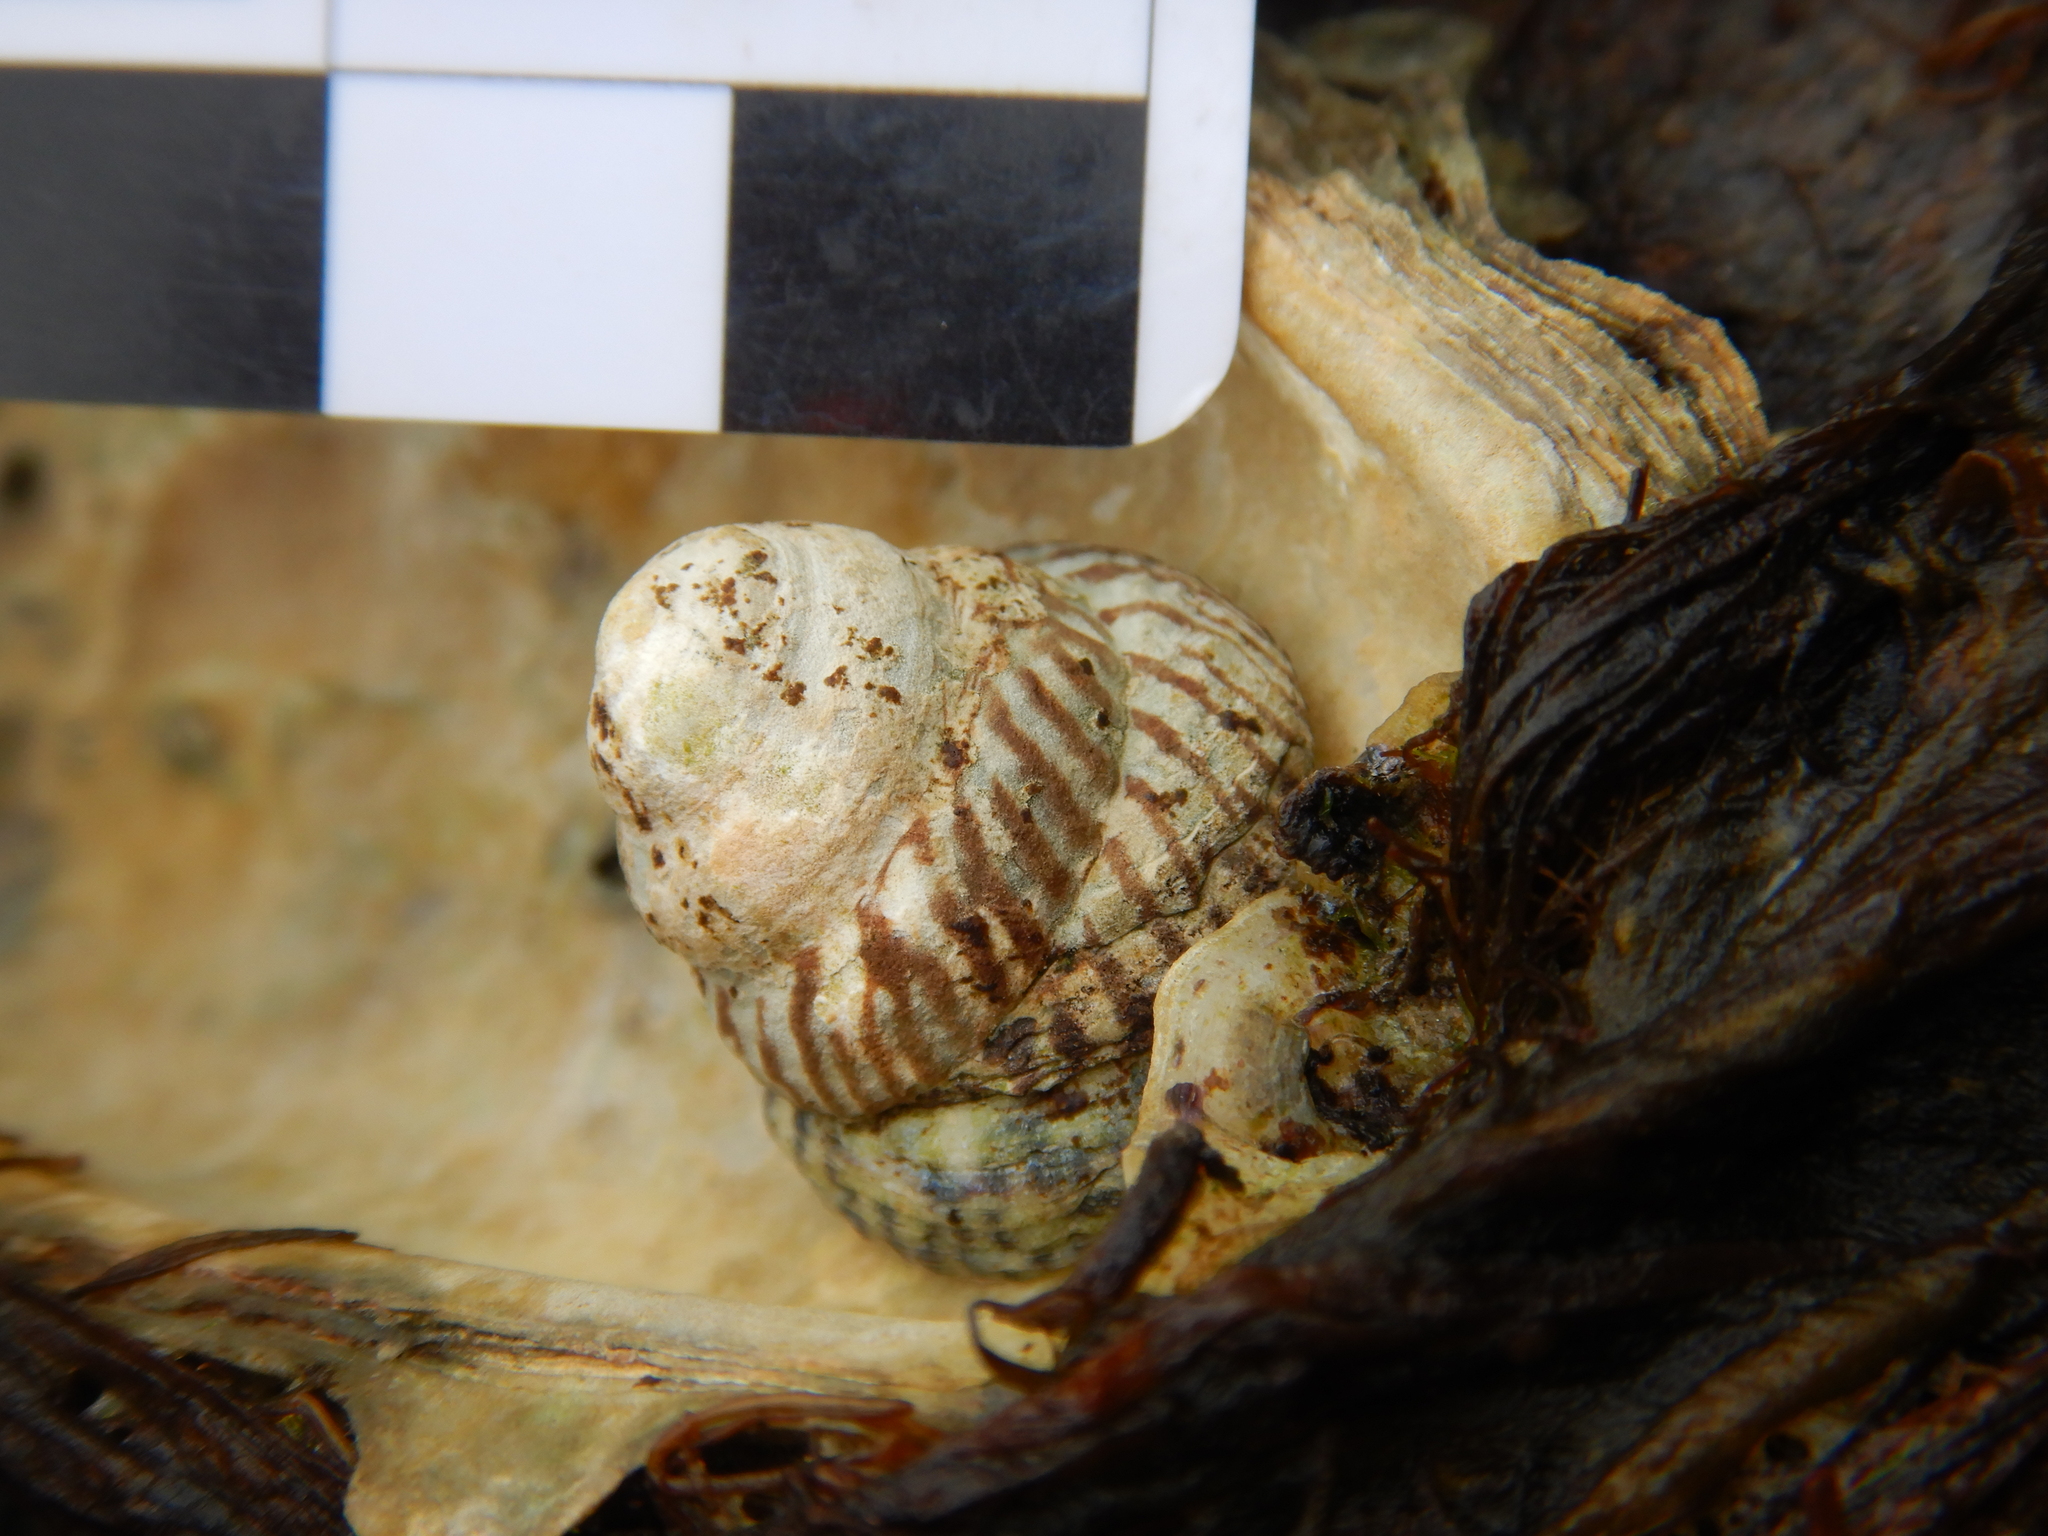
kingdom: Animalia
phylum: Mollusca
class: Gastropoda
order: Littorinimorpha
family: Littorinidae
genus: Bembicium
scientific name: Bembicium nanum
